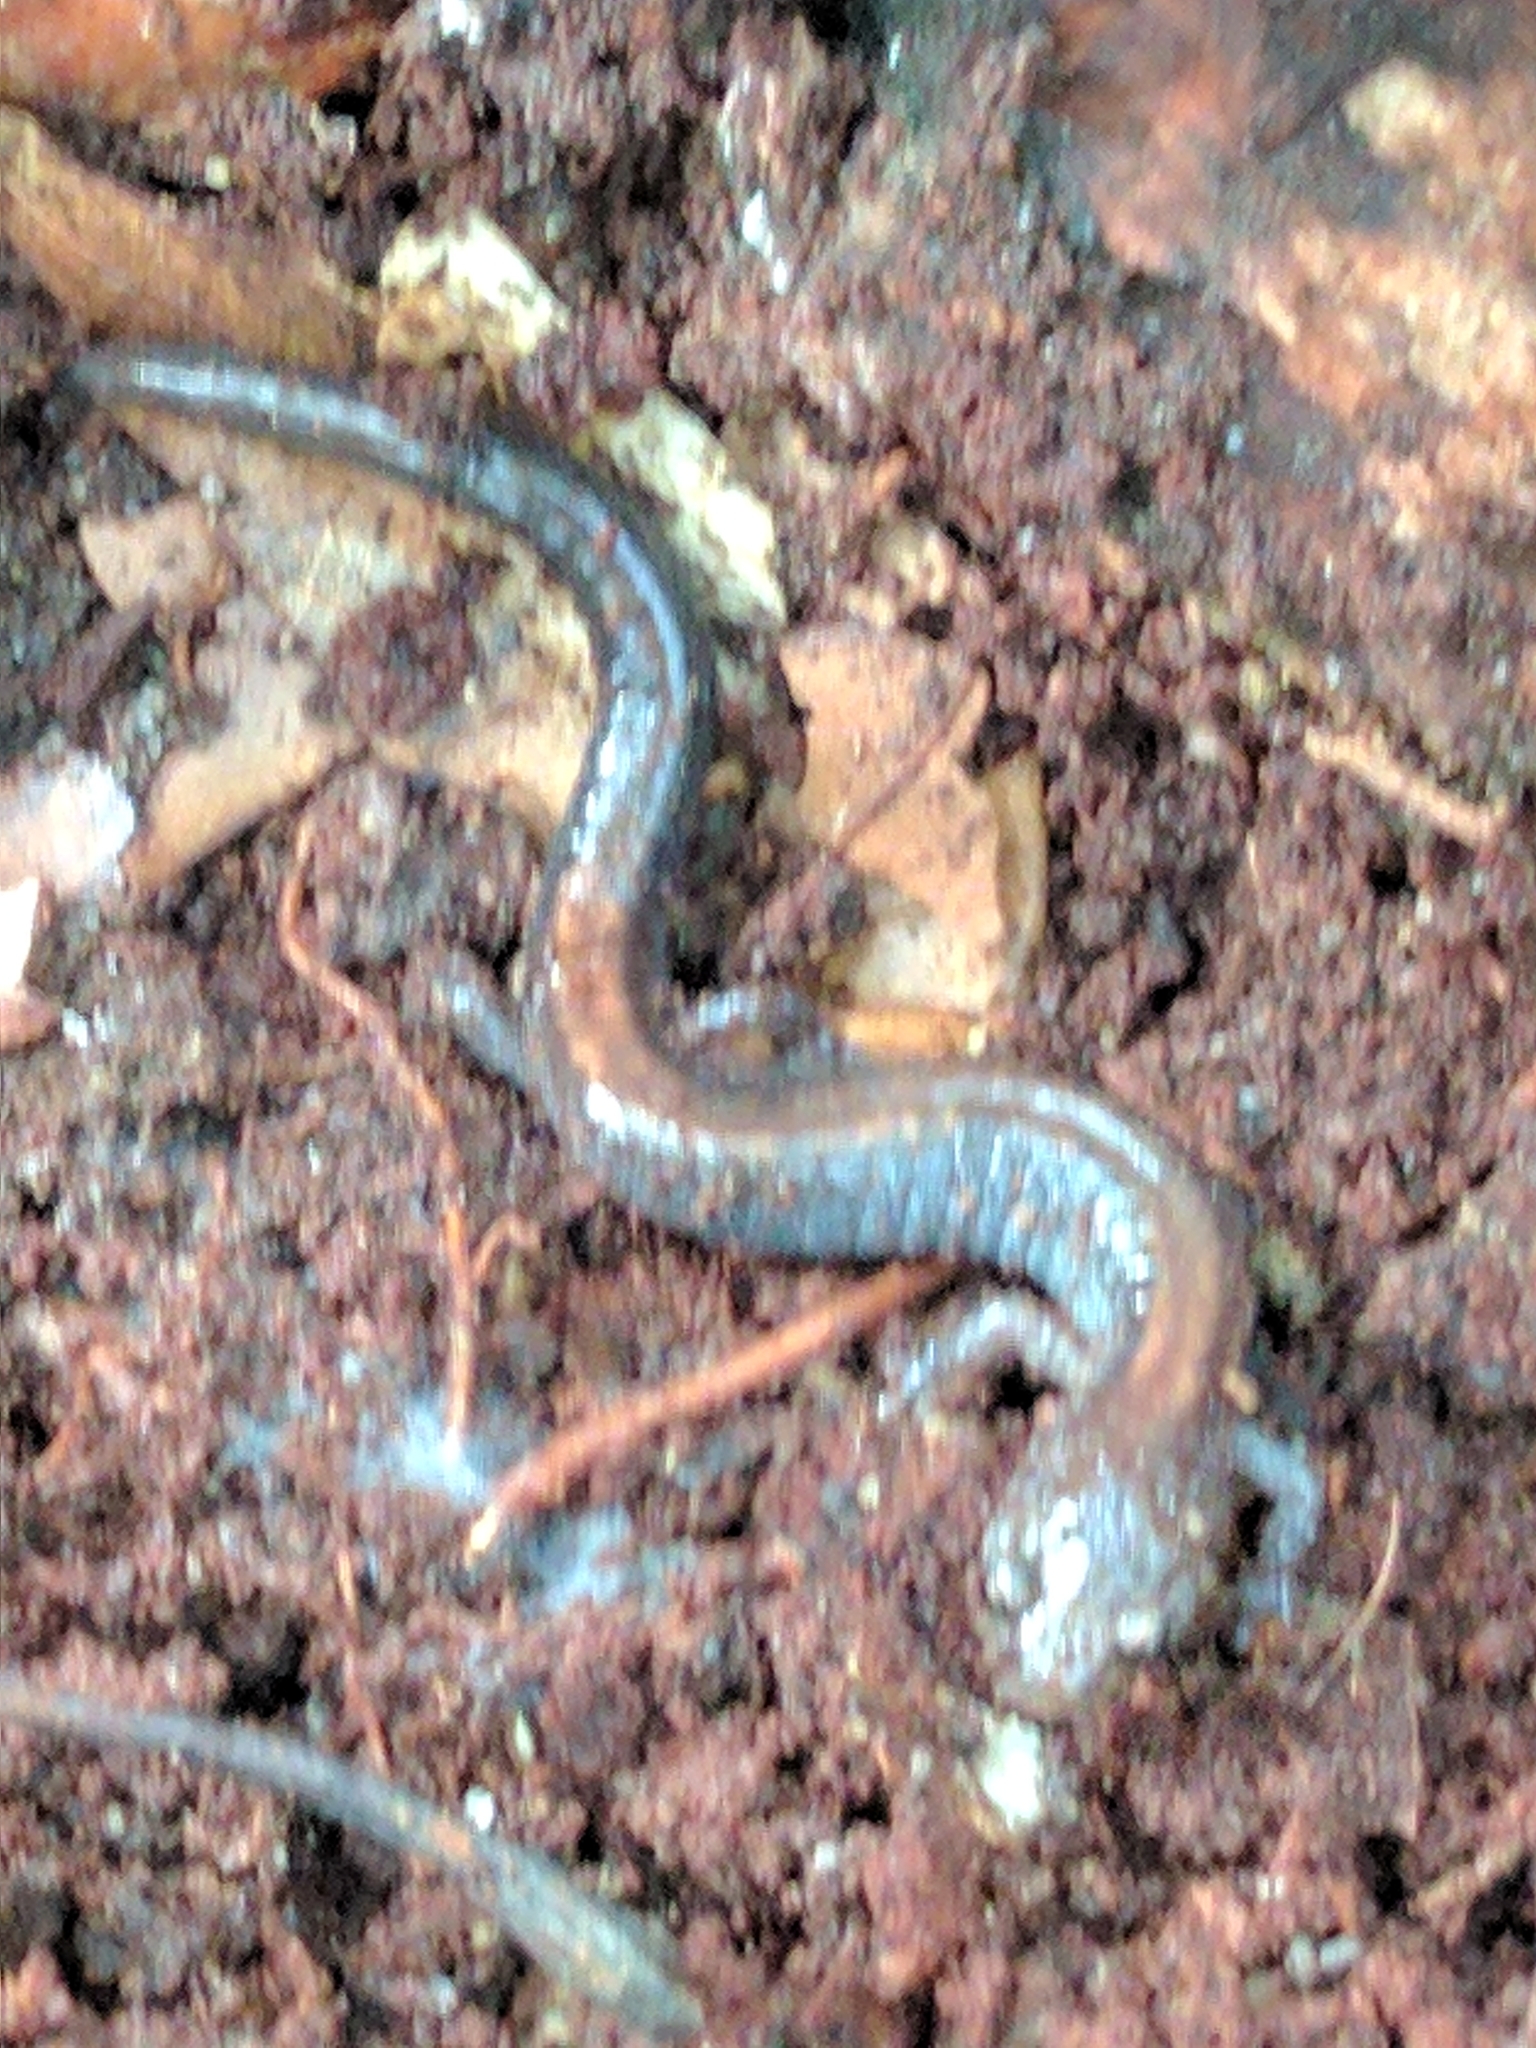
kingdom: Animalia
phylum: Chordata
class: Amphibia
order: Caudata
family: Plethodontidae
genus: Plethodon
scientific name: Plethodon cinereus
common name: Redback salamander
